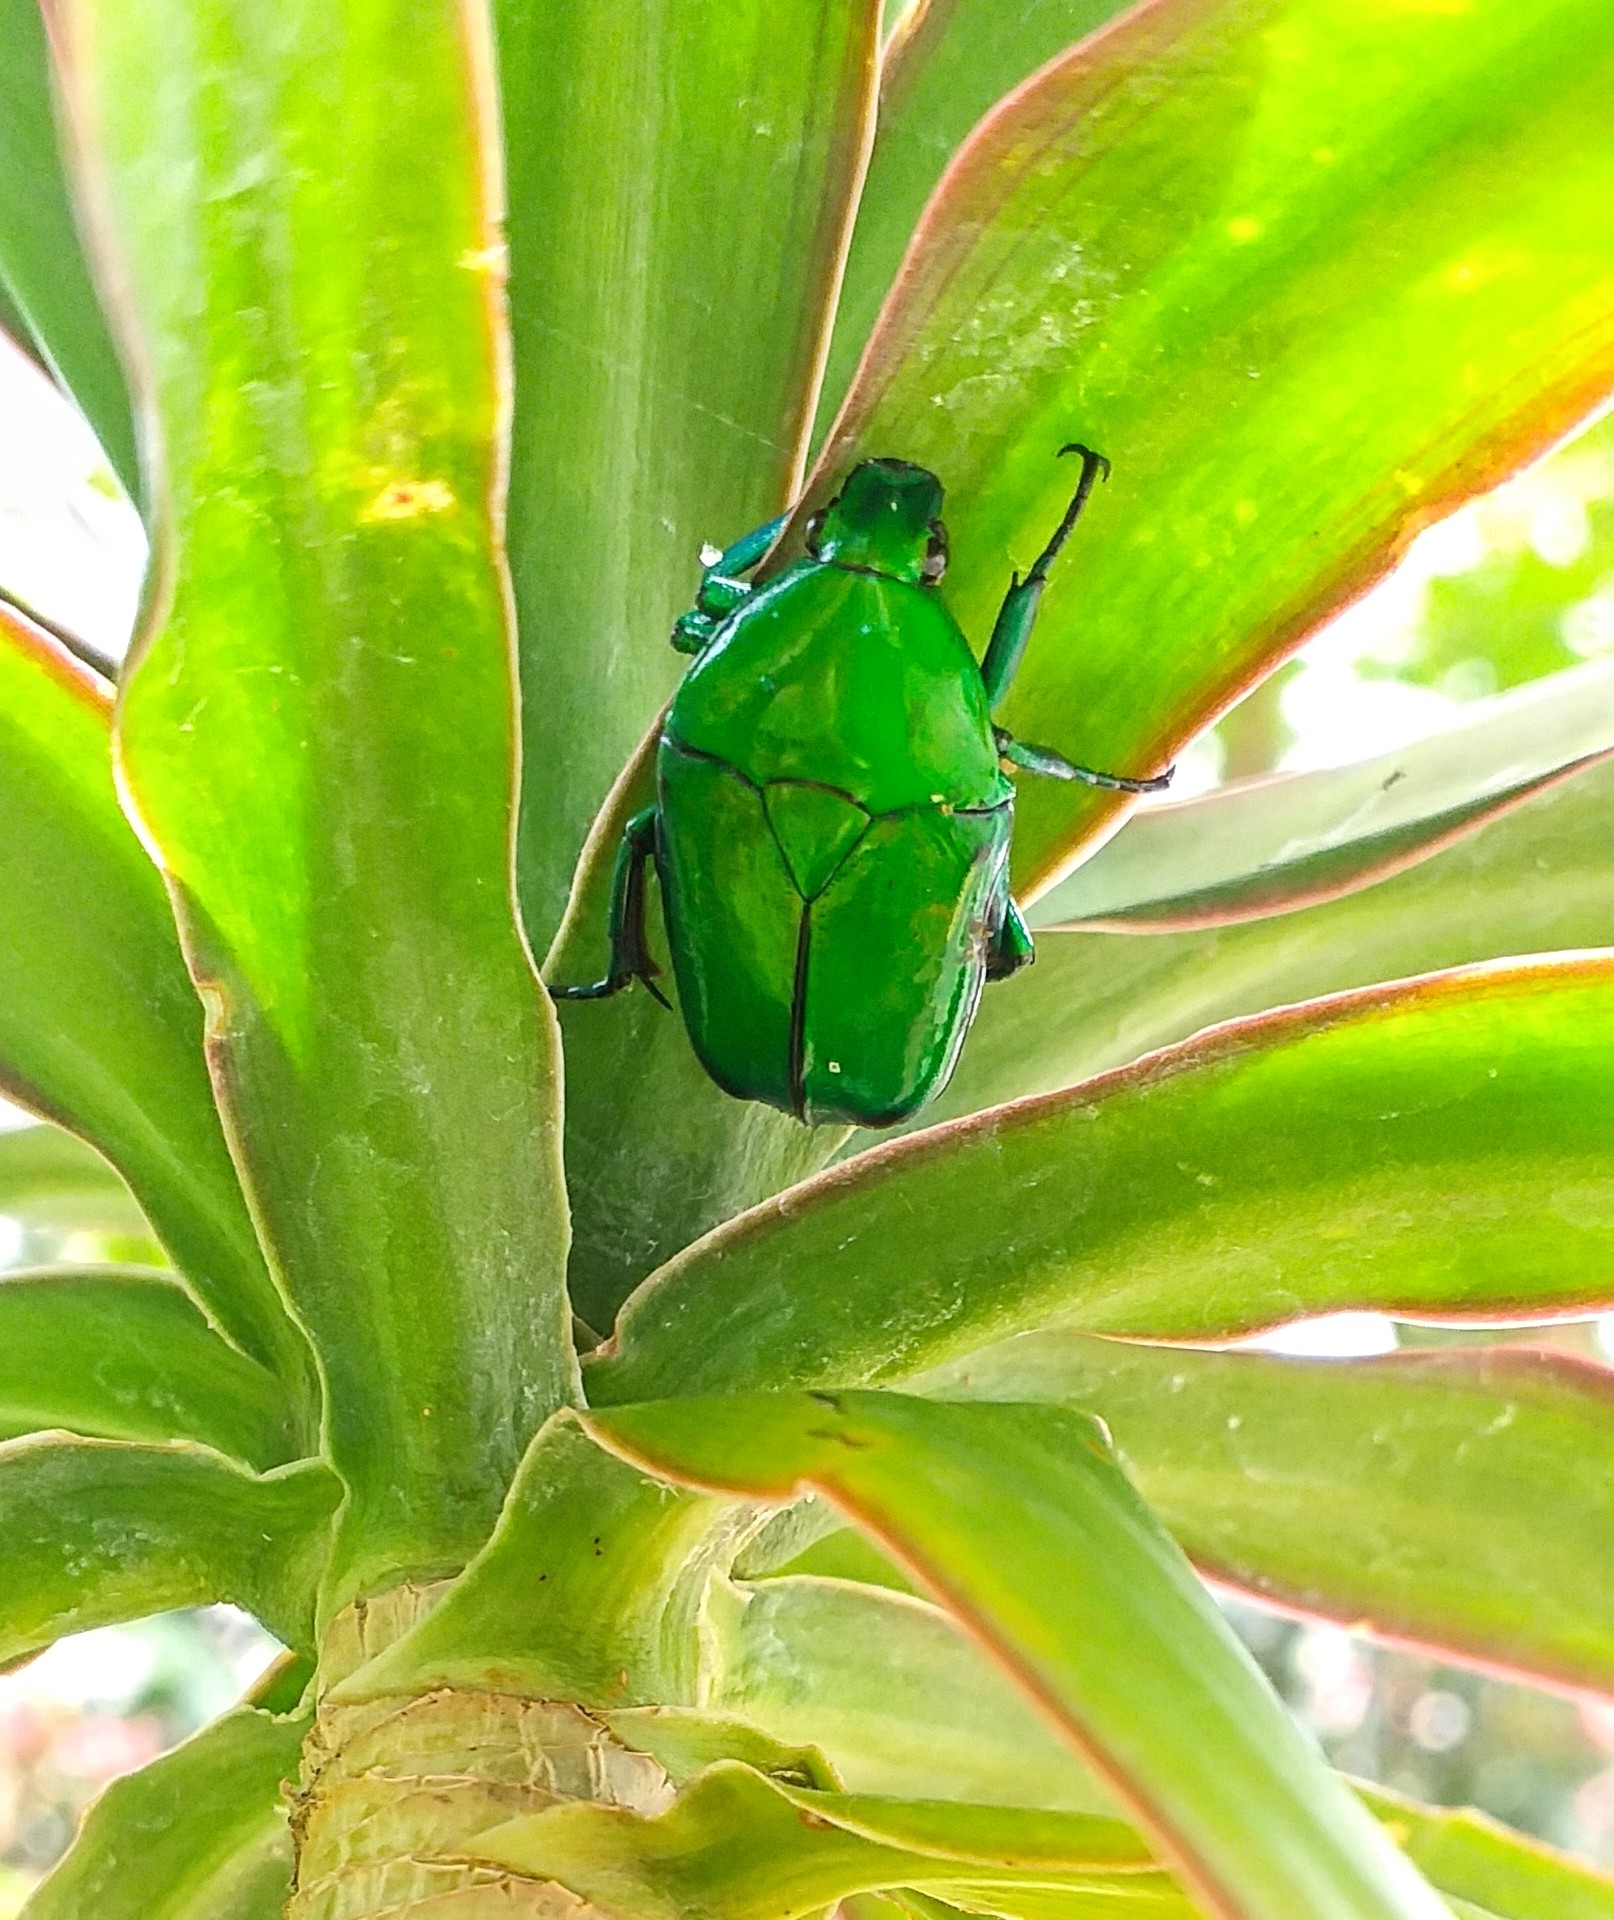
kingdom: Animalia
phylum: Arthropoda
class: Insecta
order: Coleoptera
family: Scarabaeidae
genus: Ptychodesthes
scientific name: Ptychodesthes Heterorrhina elegans
